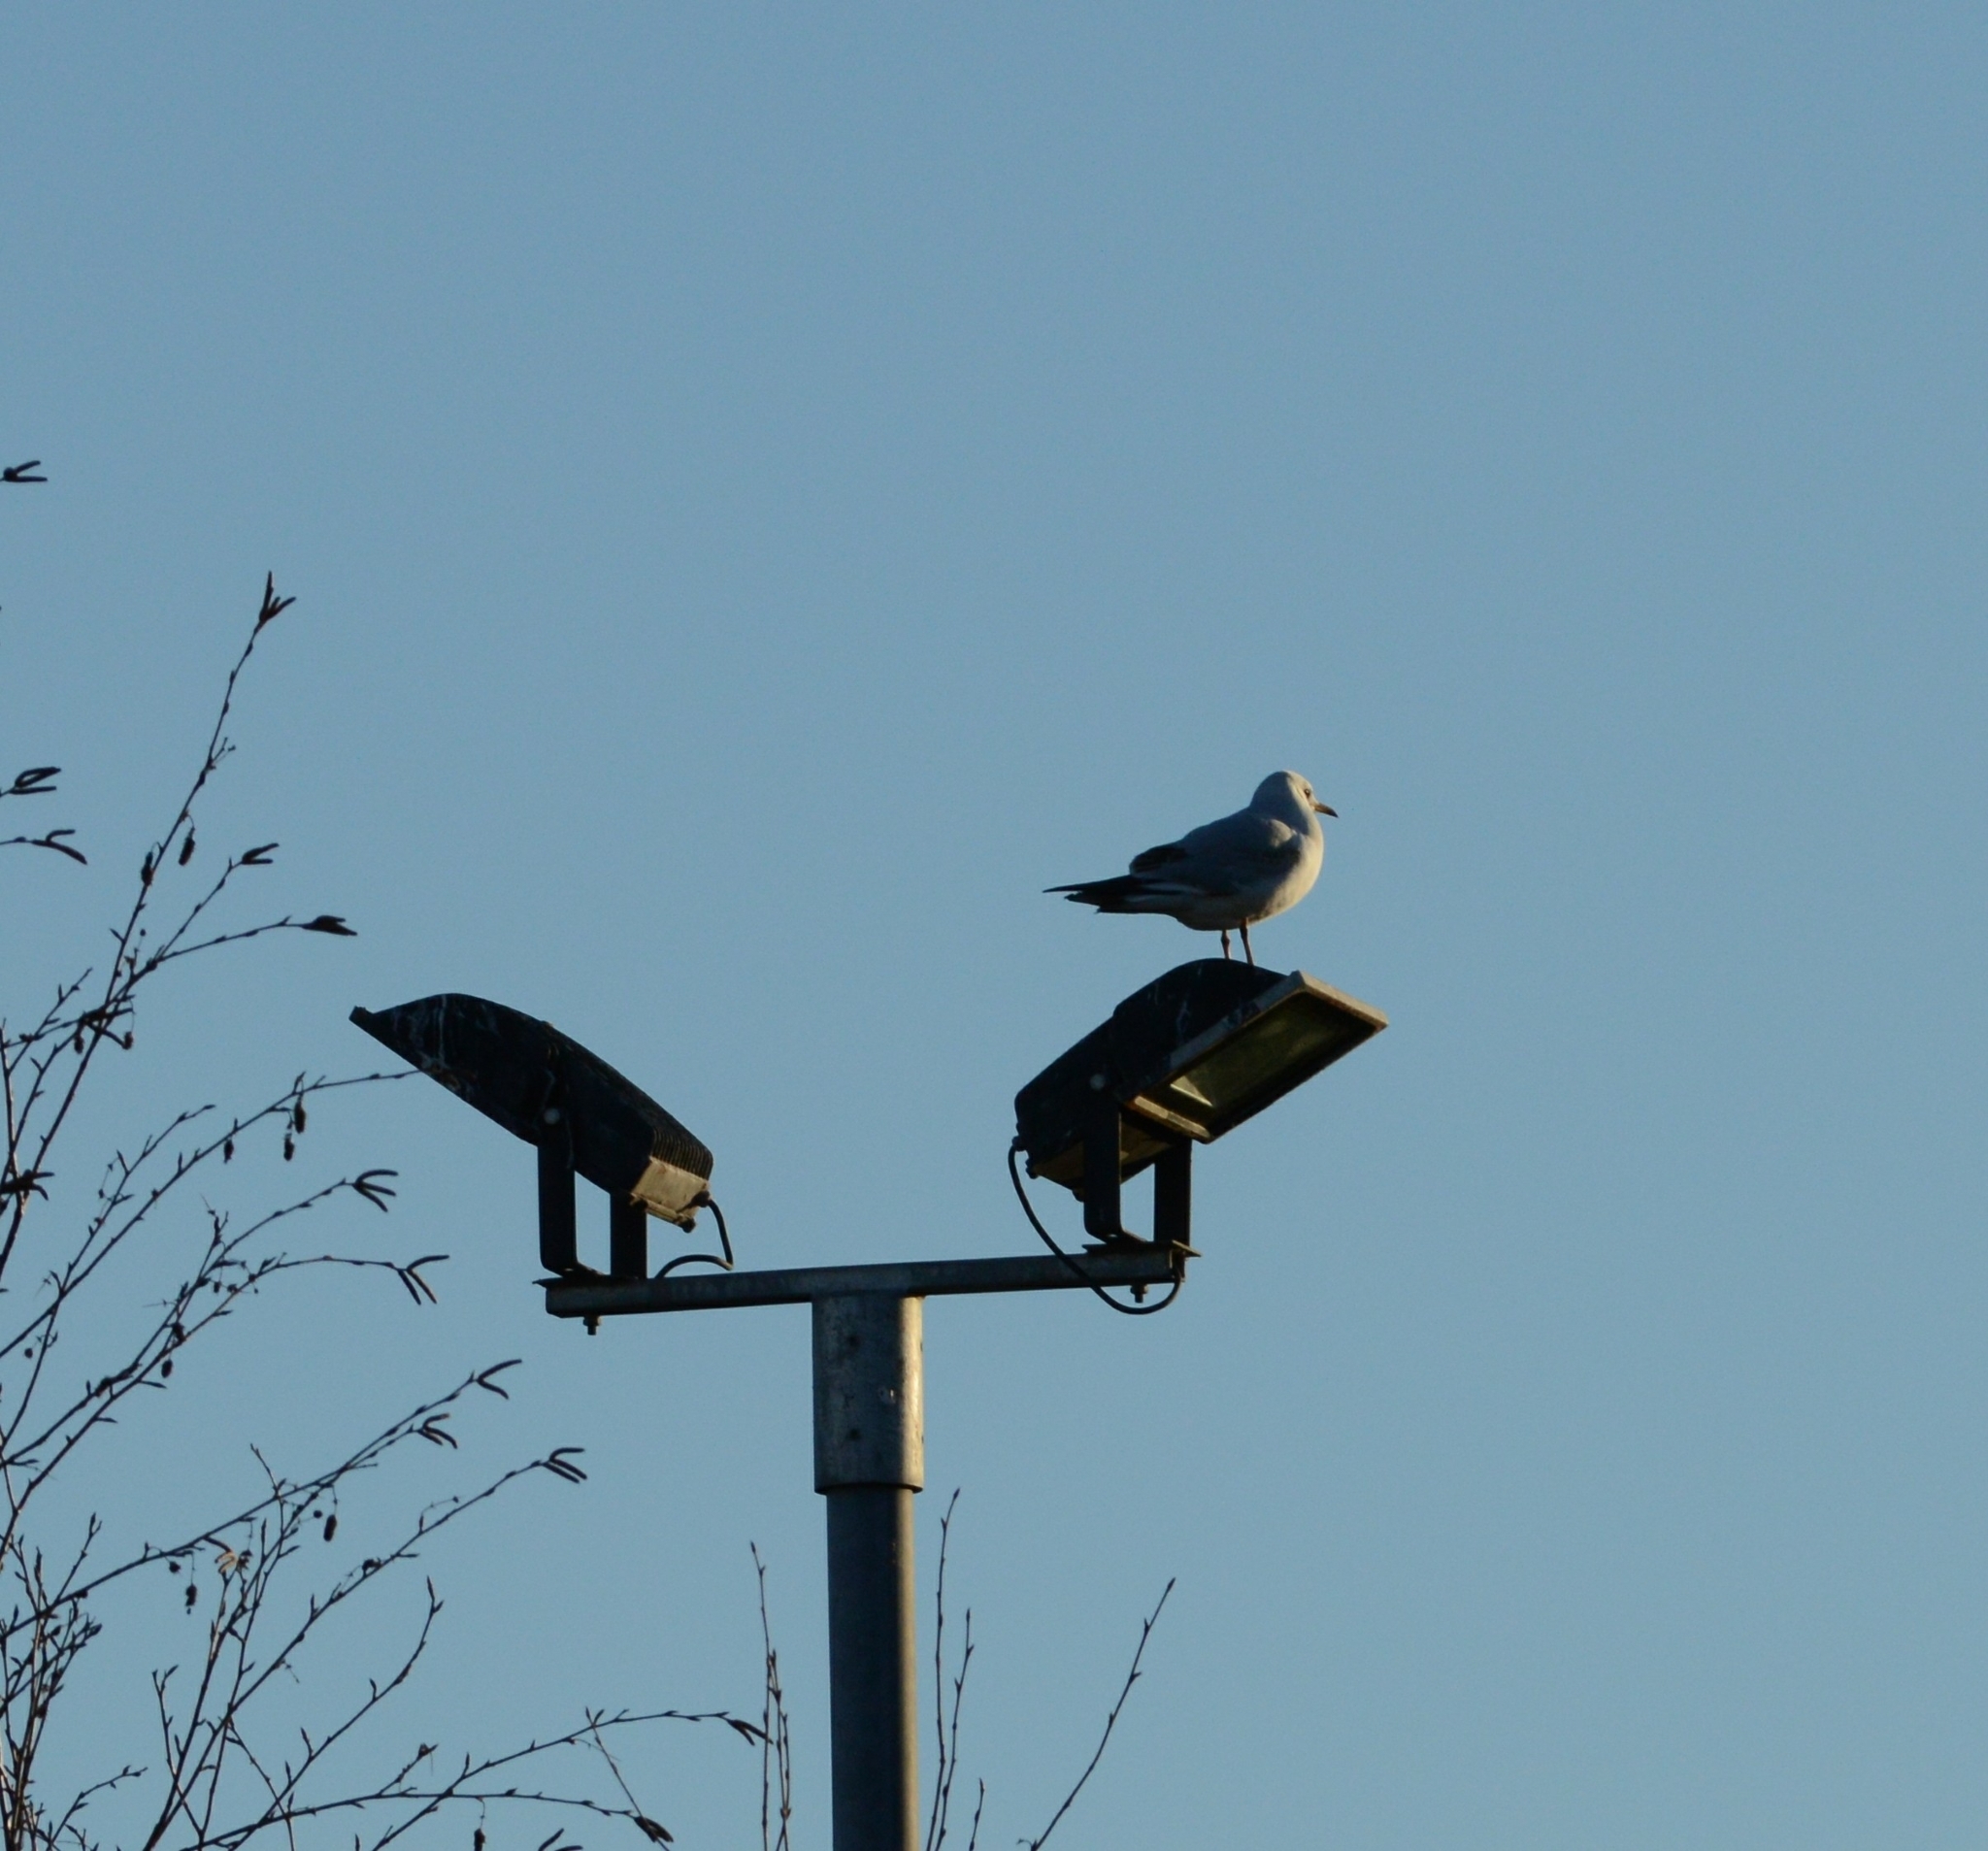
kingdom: Animalia
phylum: Chordata
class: Aves
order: Charadriiformes
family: Laridae
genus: Chroicocephalus
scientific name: Chroicocephalus ridibundus
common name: Black-headed gull
